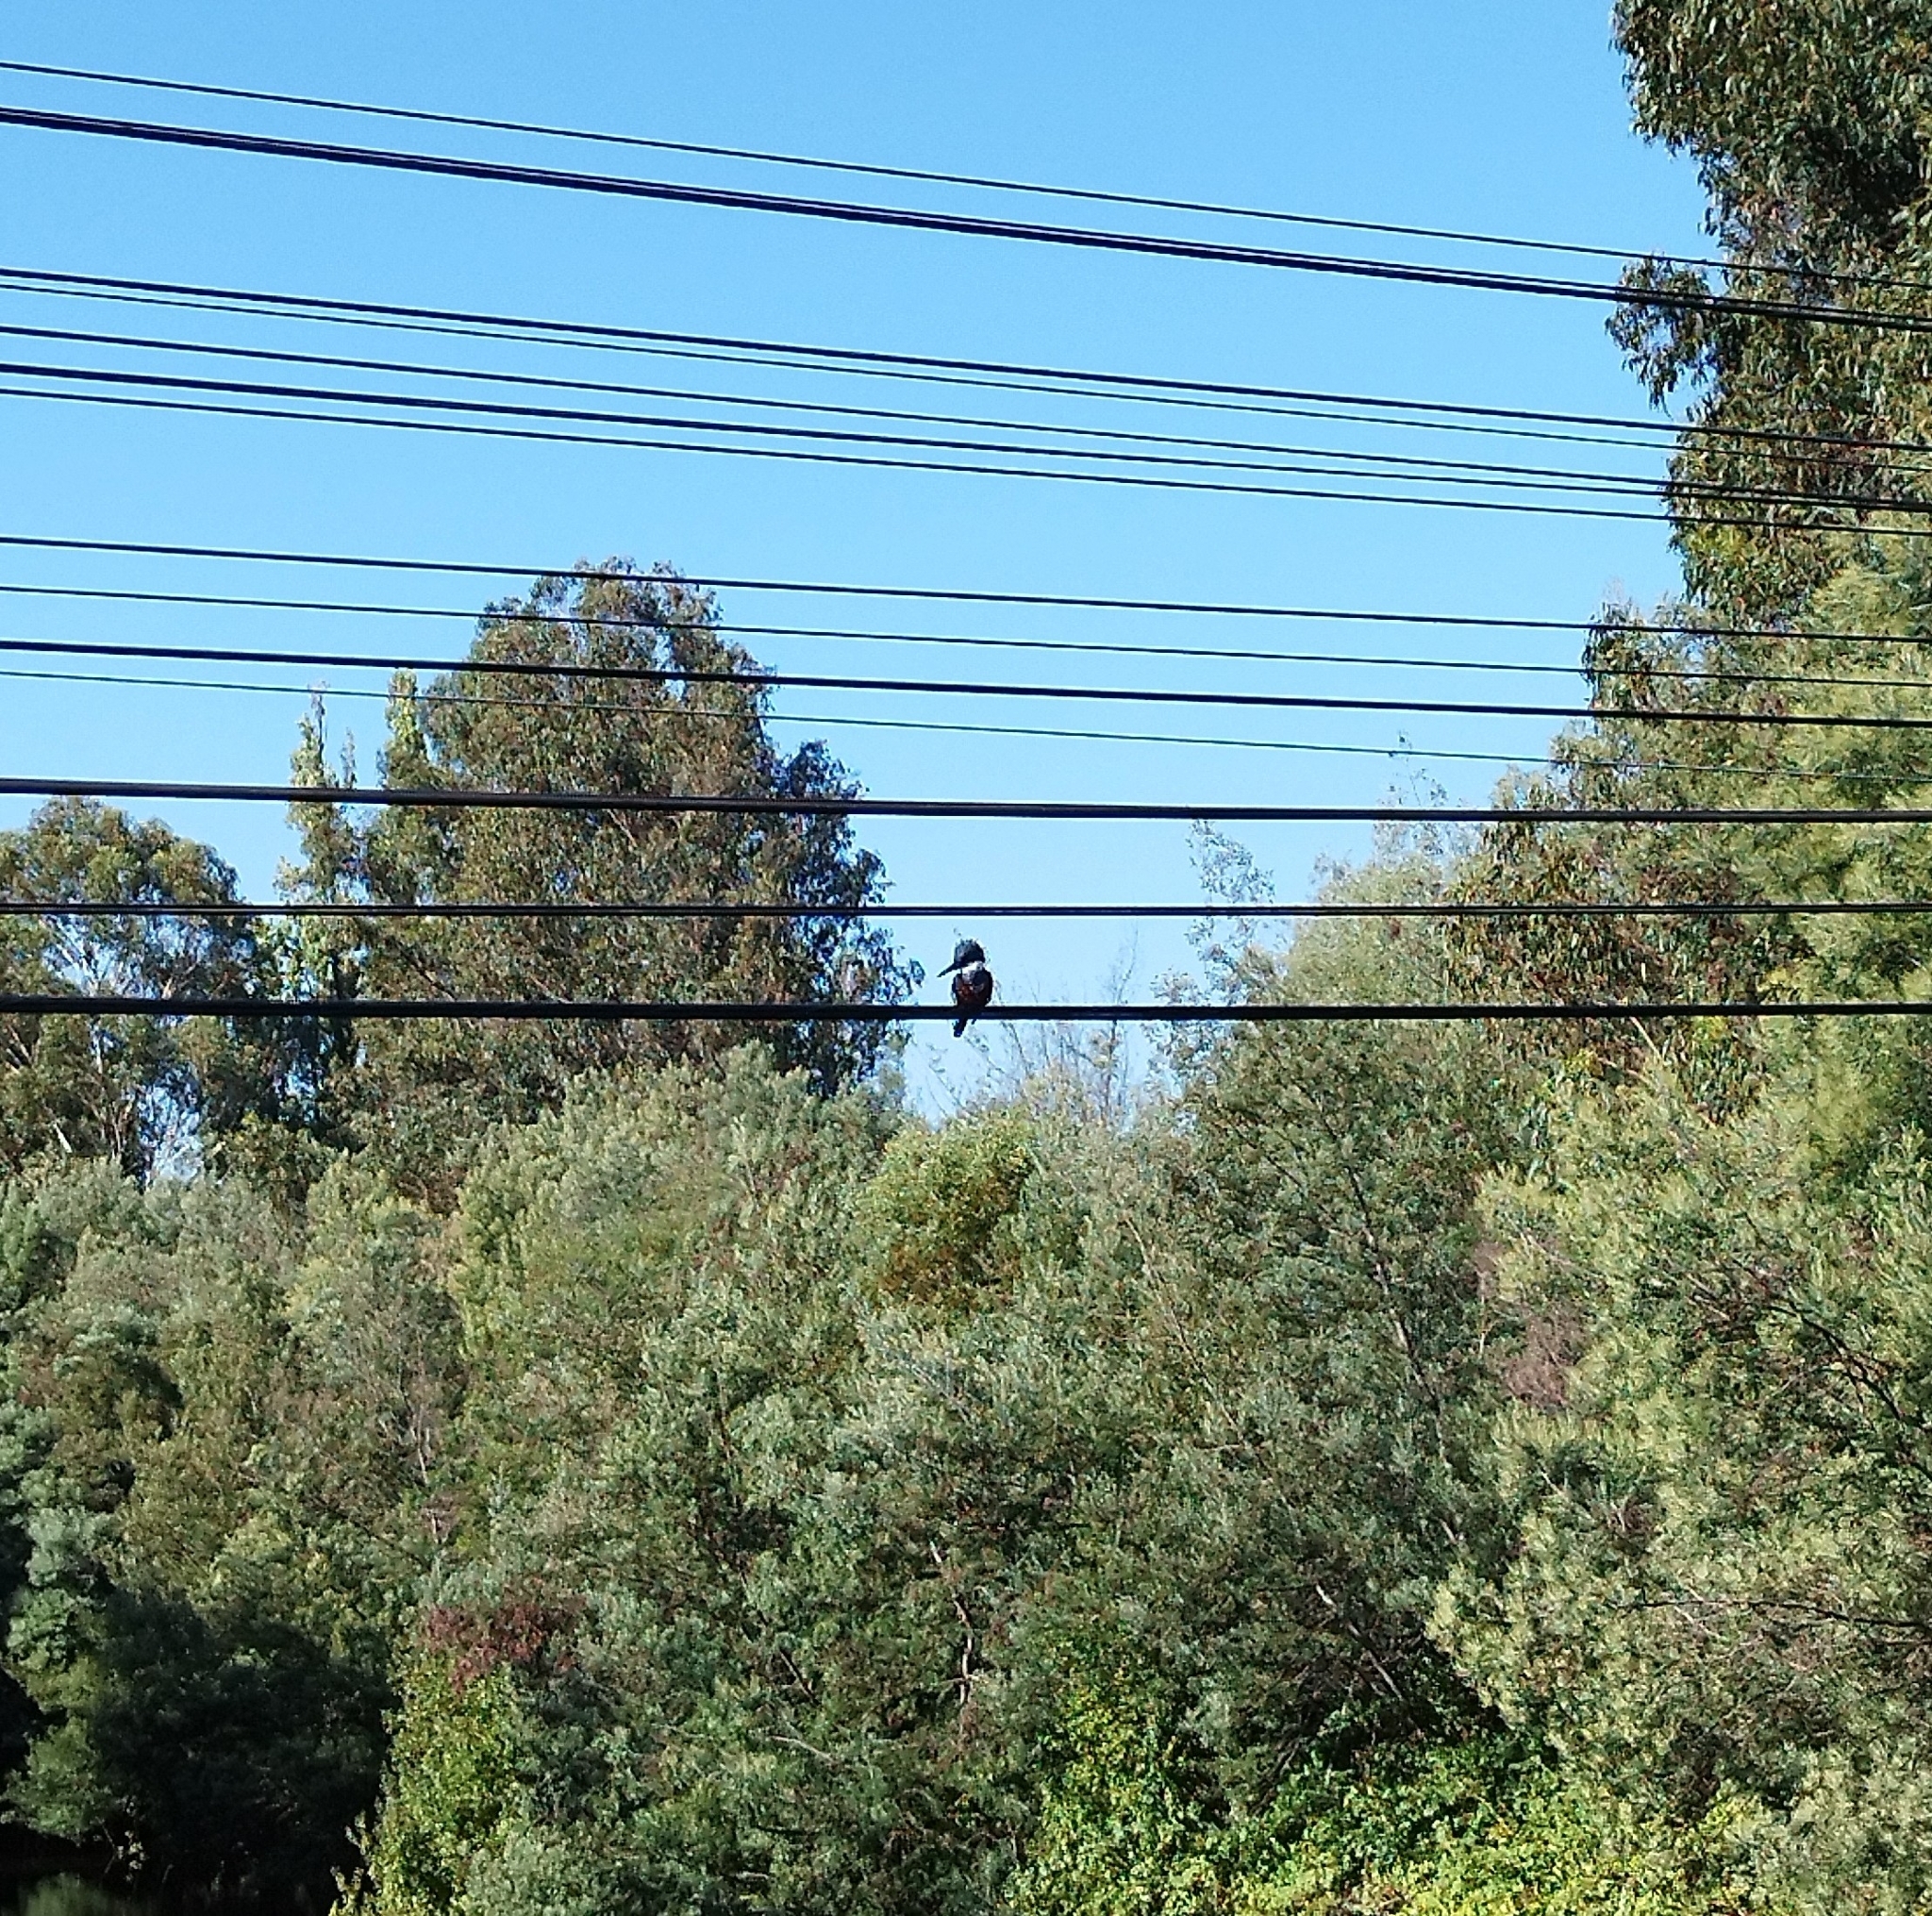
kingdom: Animalia
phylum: Chordata
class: Aves
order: Coraciiformes
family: Alcedinidae
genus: Megaceryle
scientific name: Megaceryle torquata
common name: Ringed kingfisher
